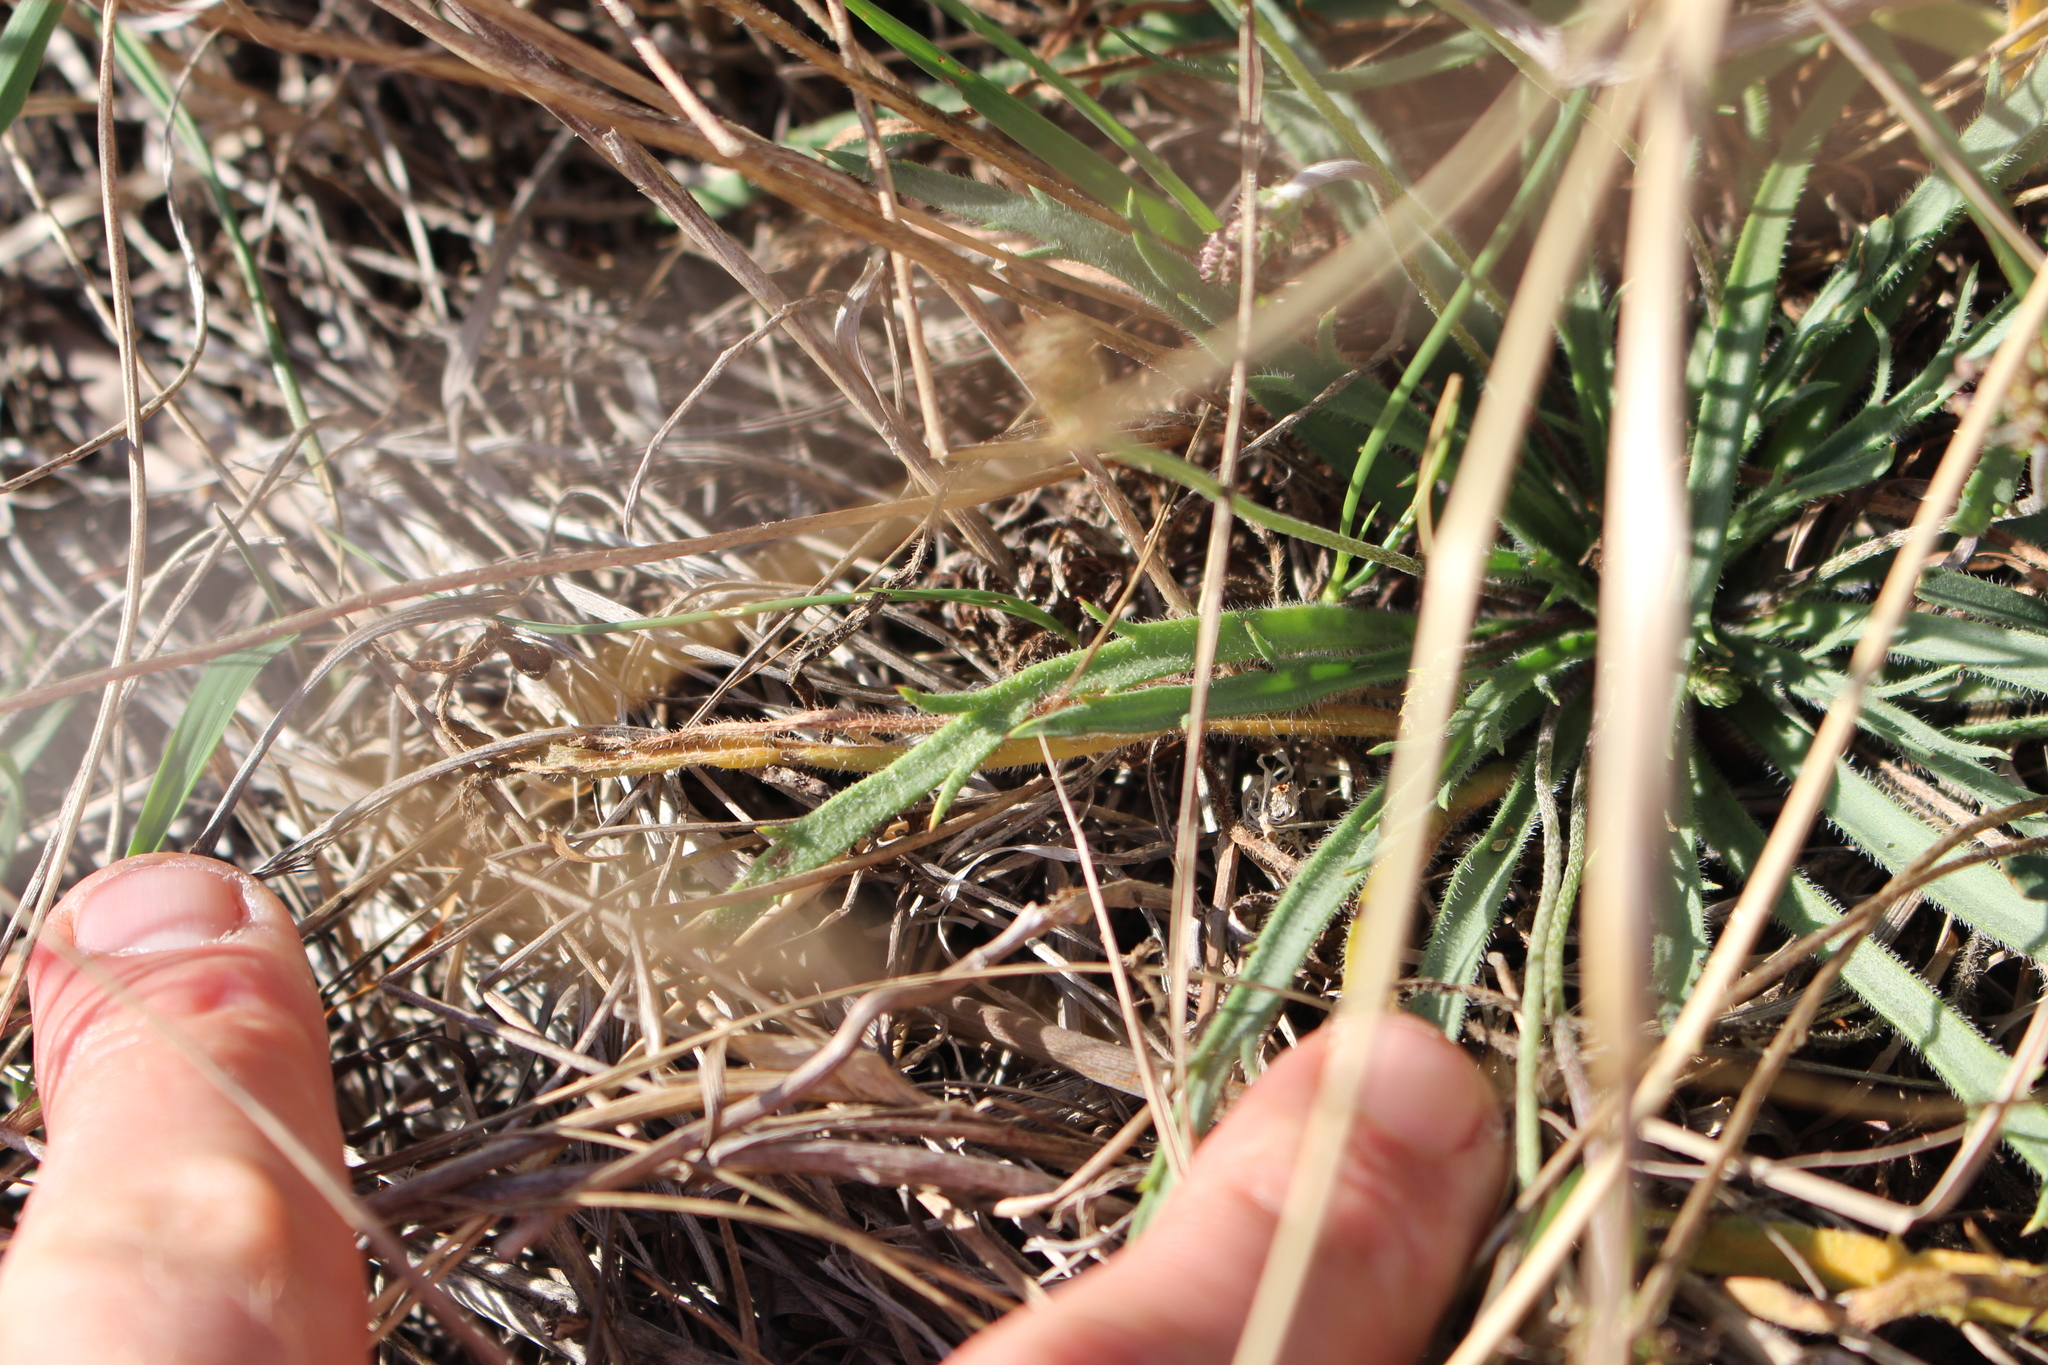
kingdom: Plantae
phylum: Tracheophyta
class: Magnoliopsida
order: Lamiales
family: Plantaginaceae
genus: Plantago
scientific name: Plantago coronopus
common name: Buck's-horn plantain
